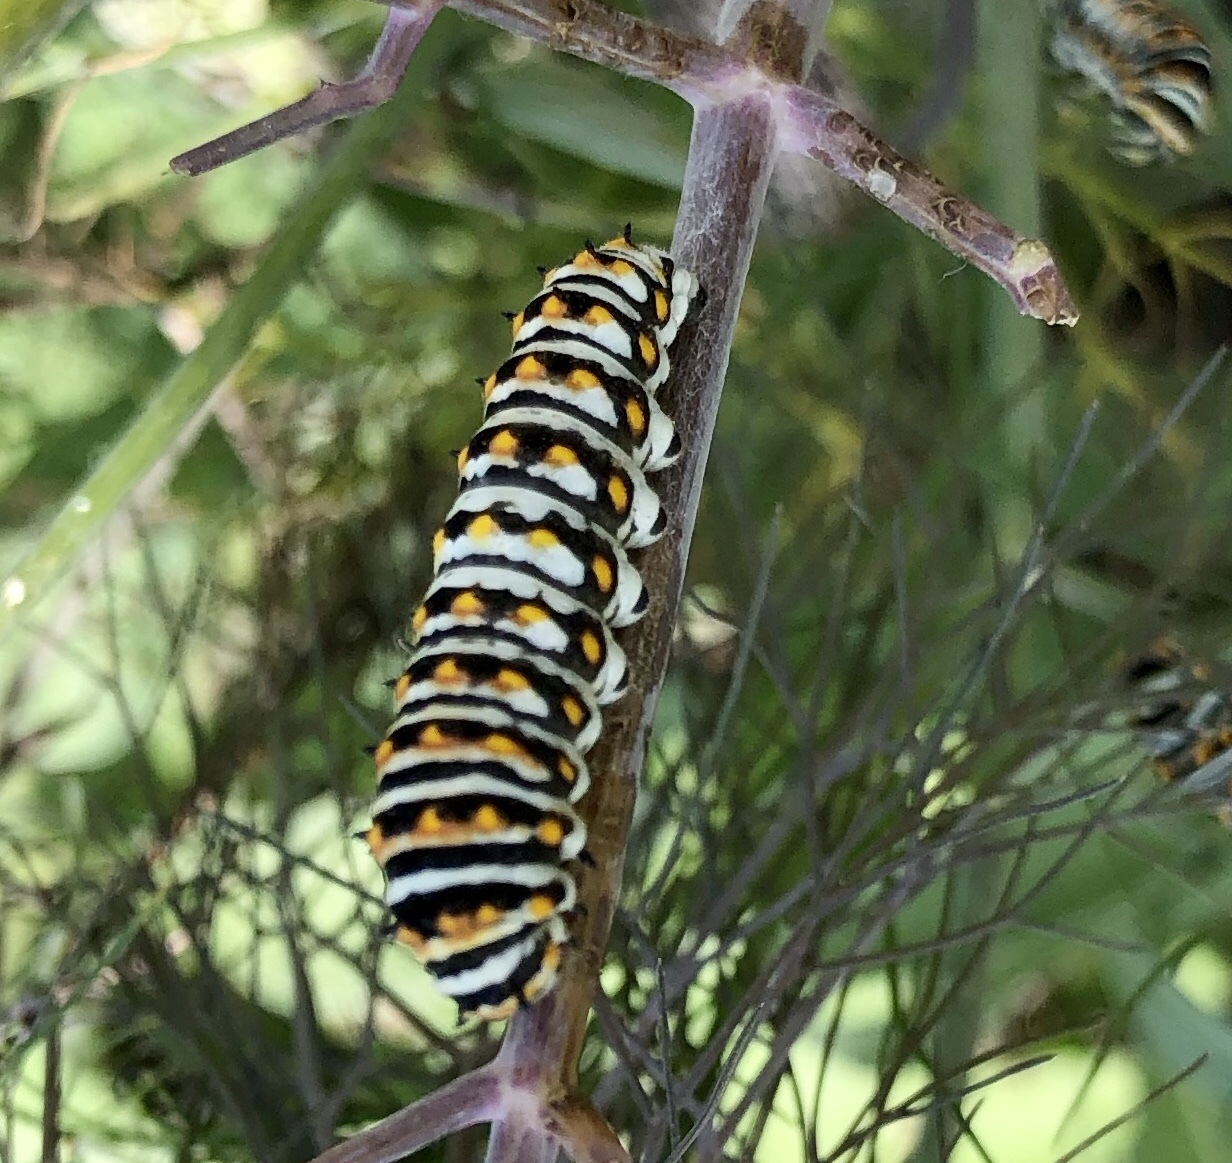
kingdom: Animalia
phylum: Arthropoda
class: Insecta
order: Lepidoptera
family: Papilionidae
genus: Papilio
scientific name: Papilio polyxenes
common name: Black swallowtail
